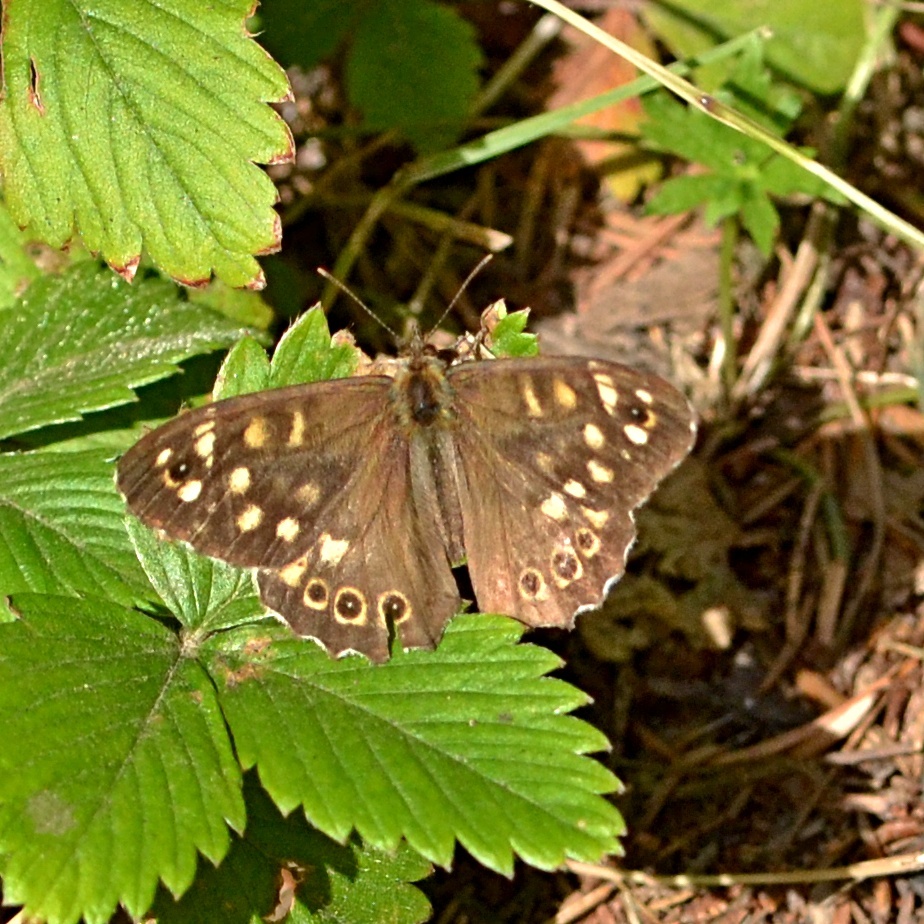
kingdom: Animalia
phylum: Arthropoda
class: Insecta
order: Lepidoptera
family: Nymphalidae
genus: Pararge
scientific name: Pararge aegeria
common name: Speckled wood
